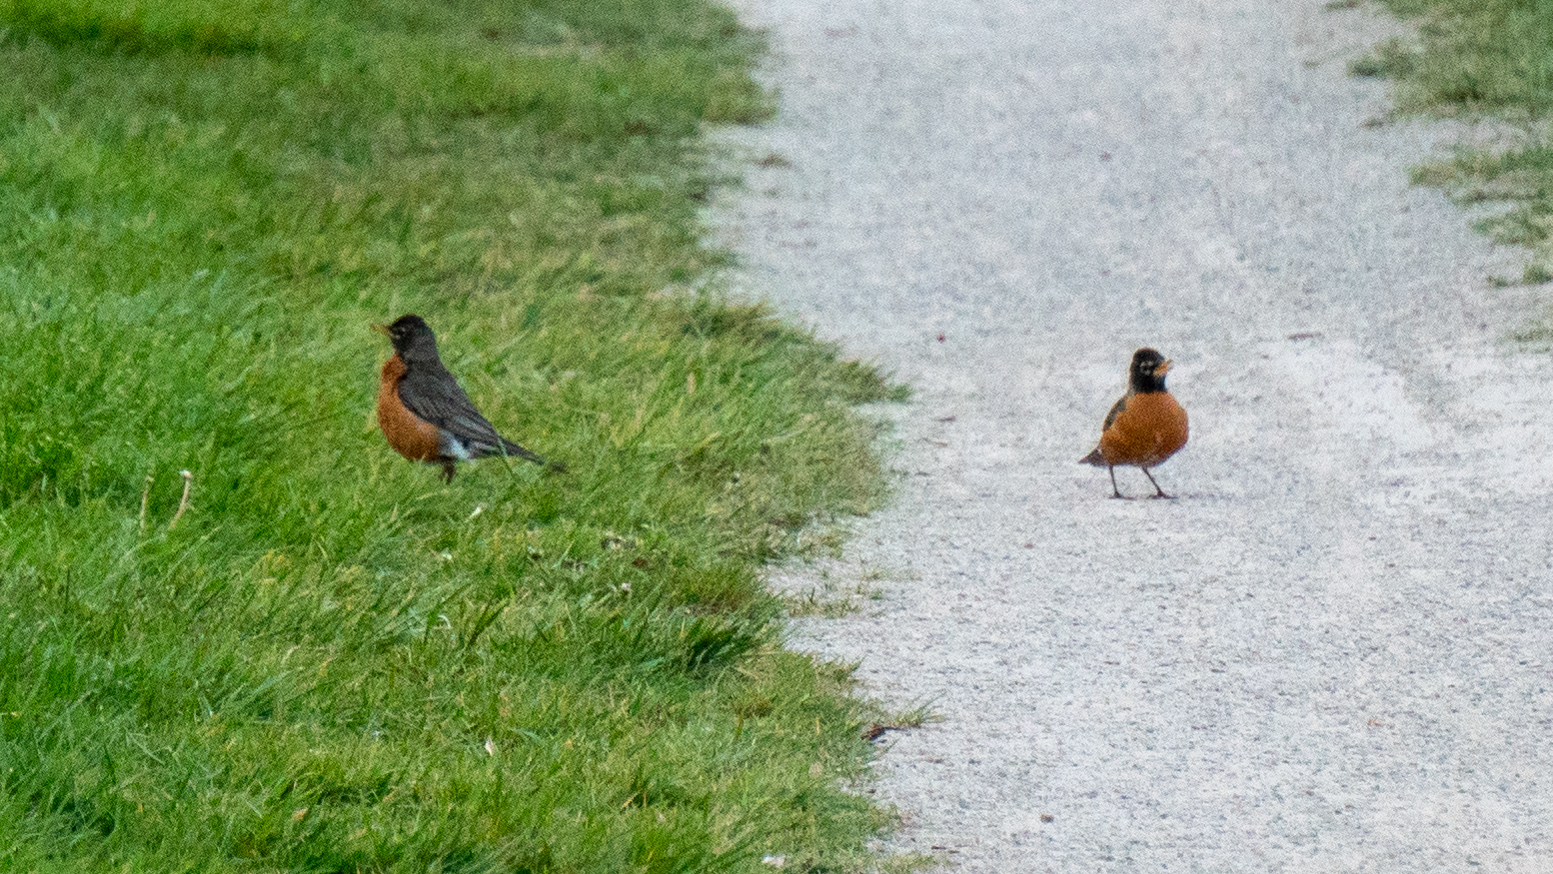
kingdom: Animalia
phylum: Chordata
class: Aves
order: Passeriformes
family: Turdidae
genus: Turdus
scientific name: Turdus migratorius
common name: American robin
